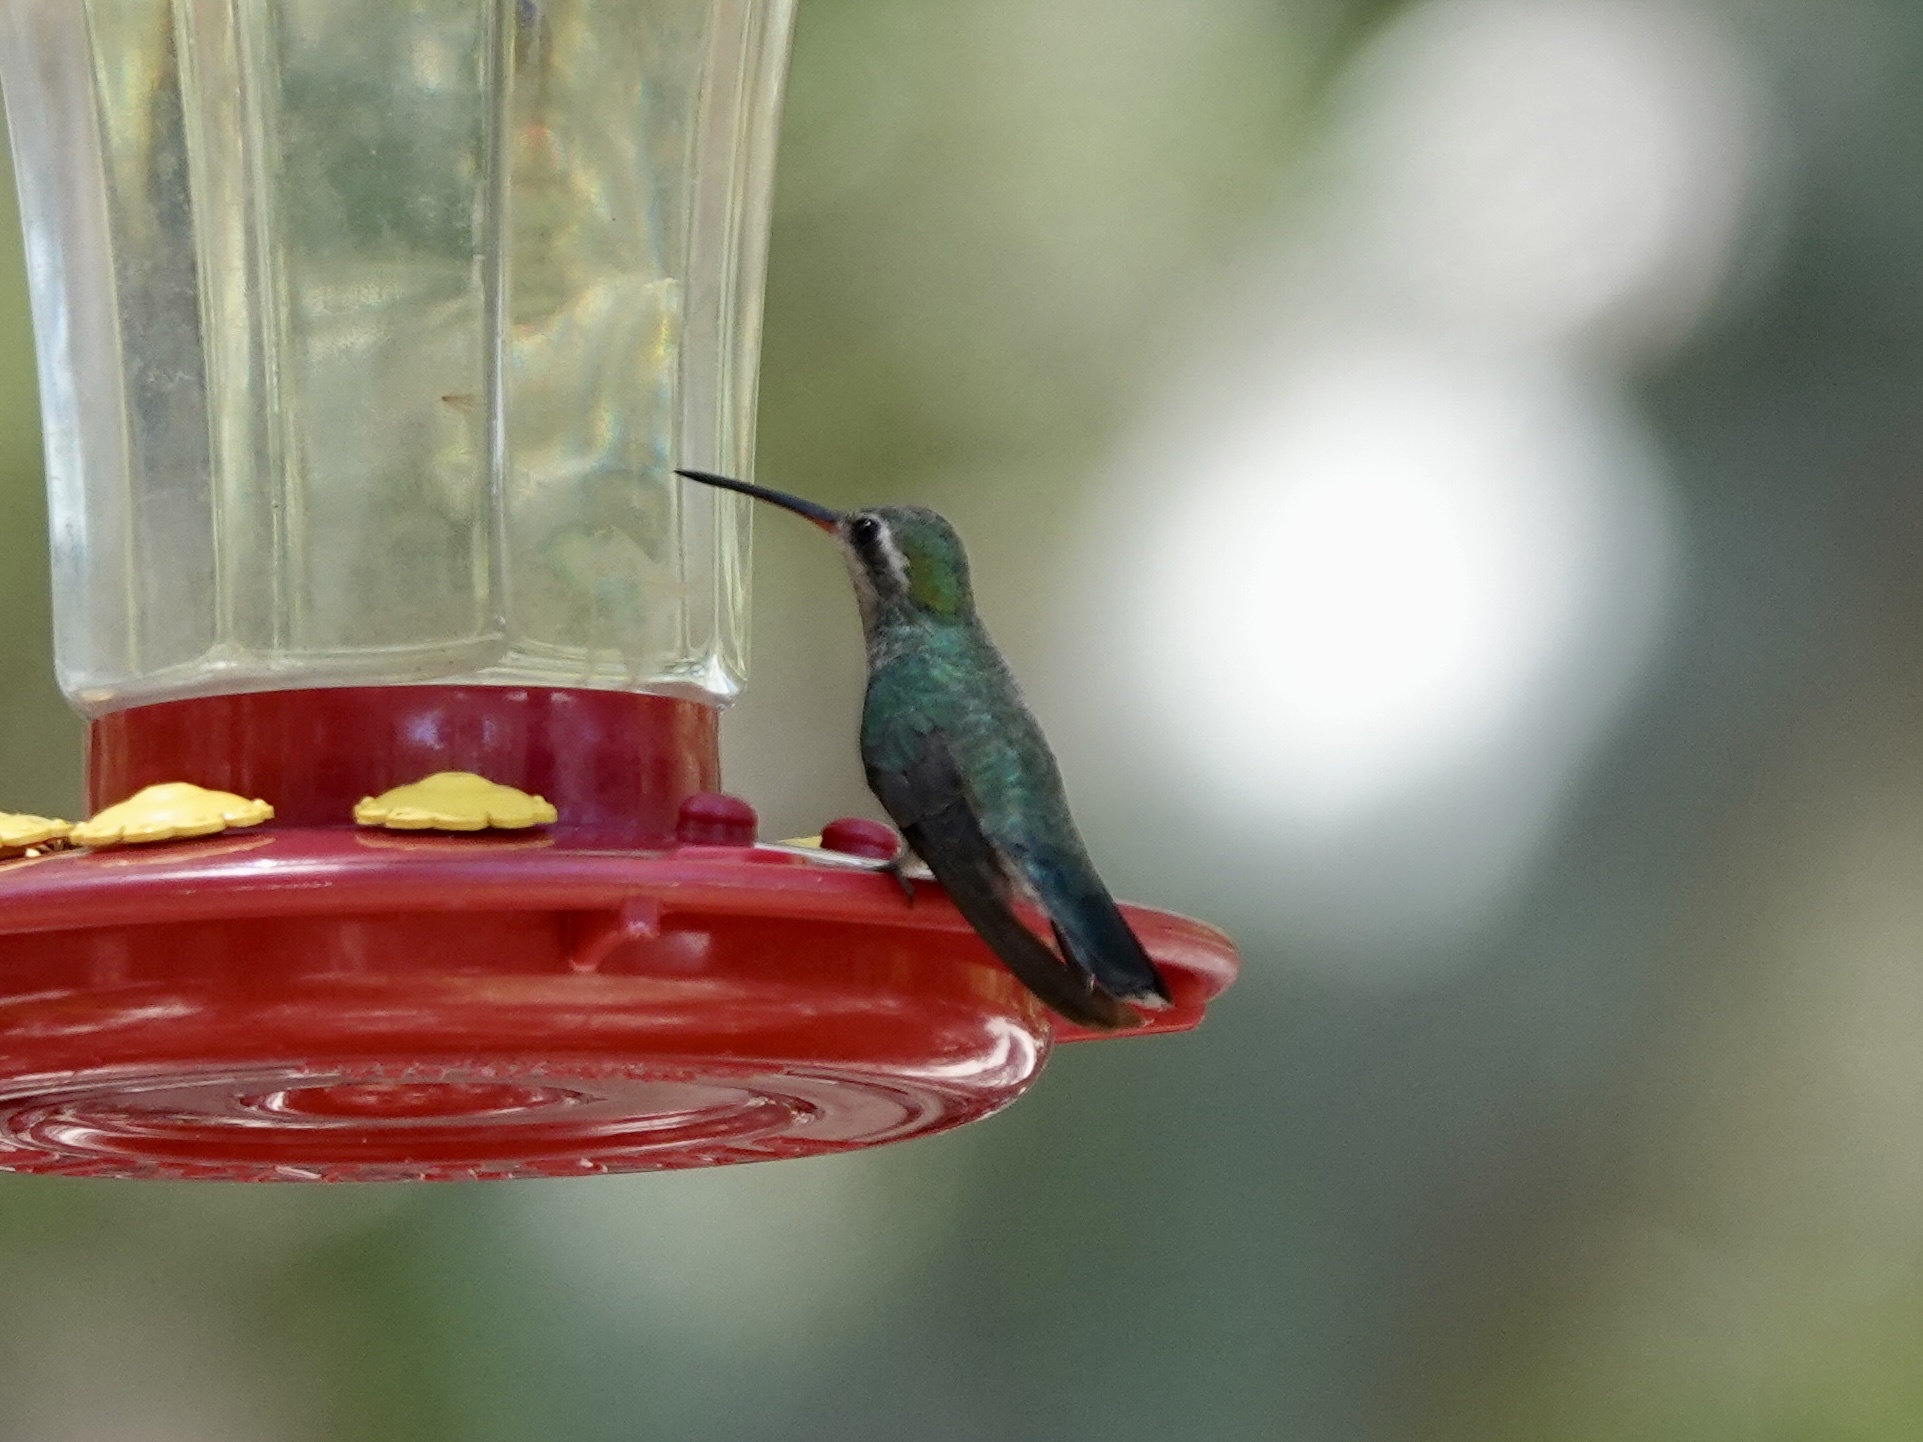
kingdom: Animalia
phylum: Chordata
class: Aves
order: Apodiformes
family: Trochilidae
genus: Cynanthus
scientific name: Cynanthus latirostris
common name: Broad-billed hummingbird
